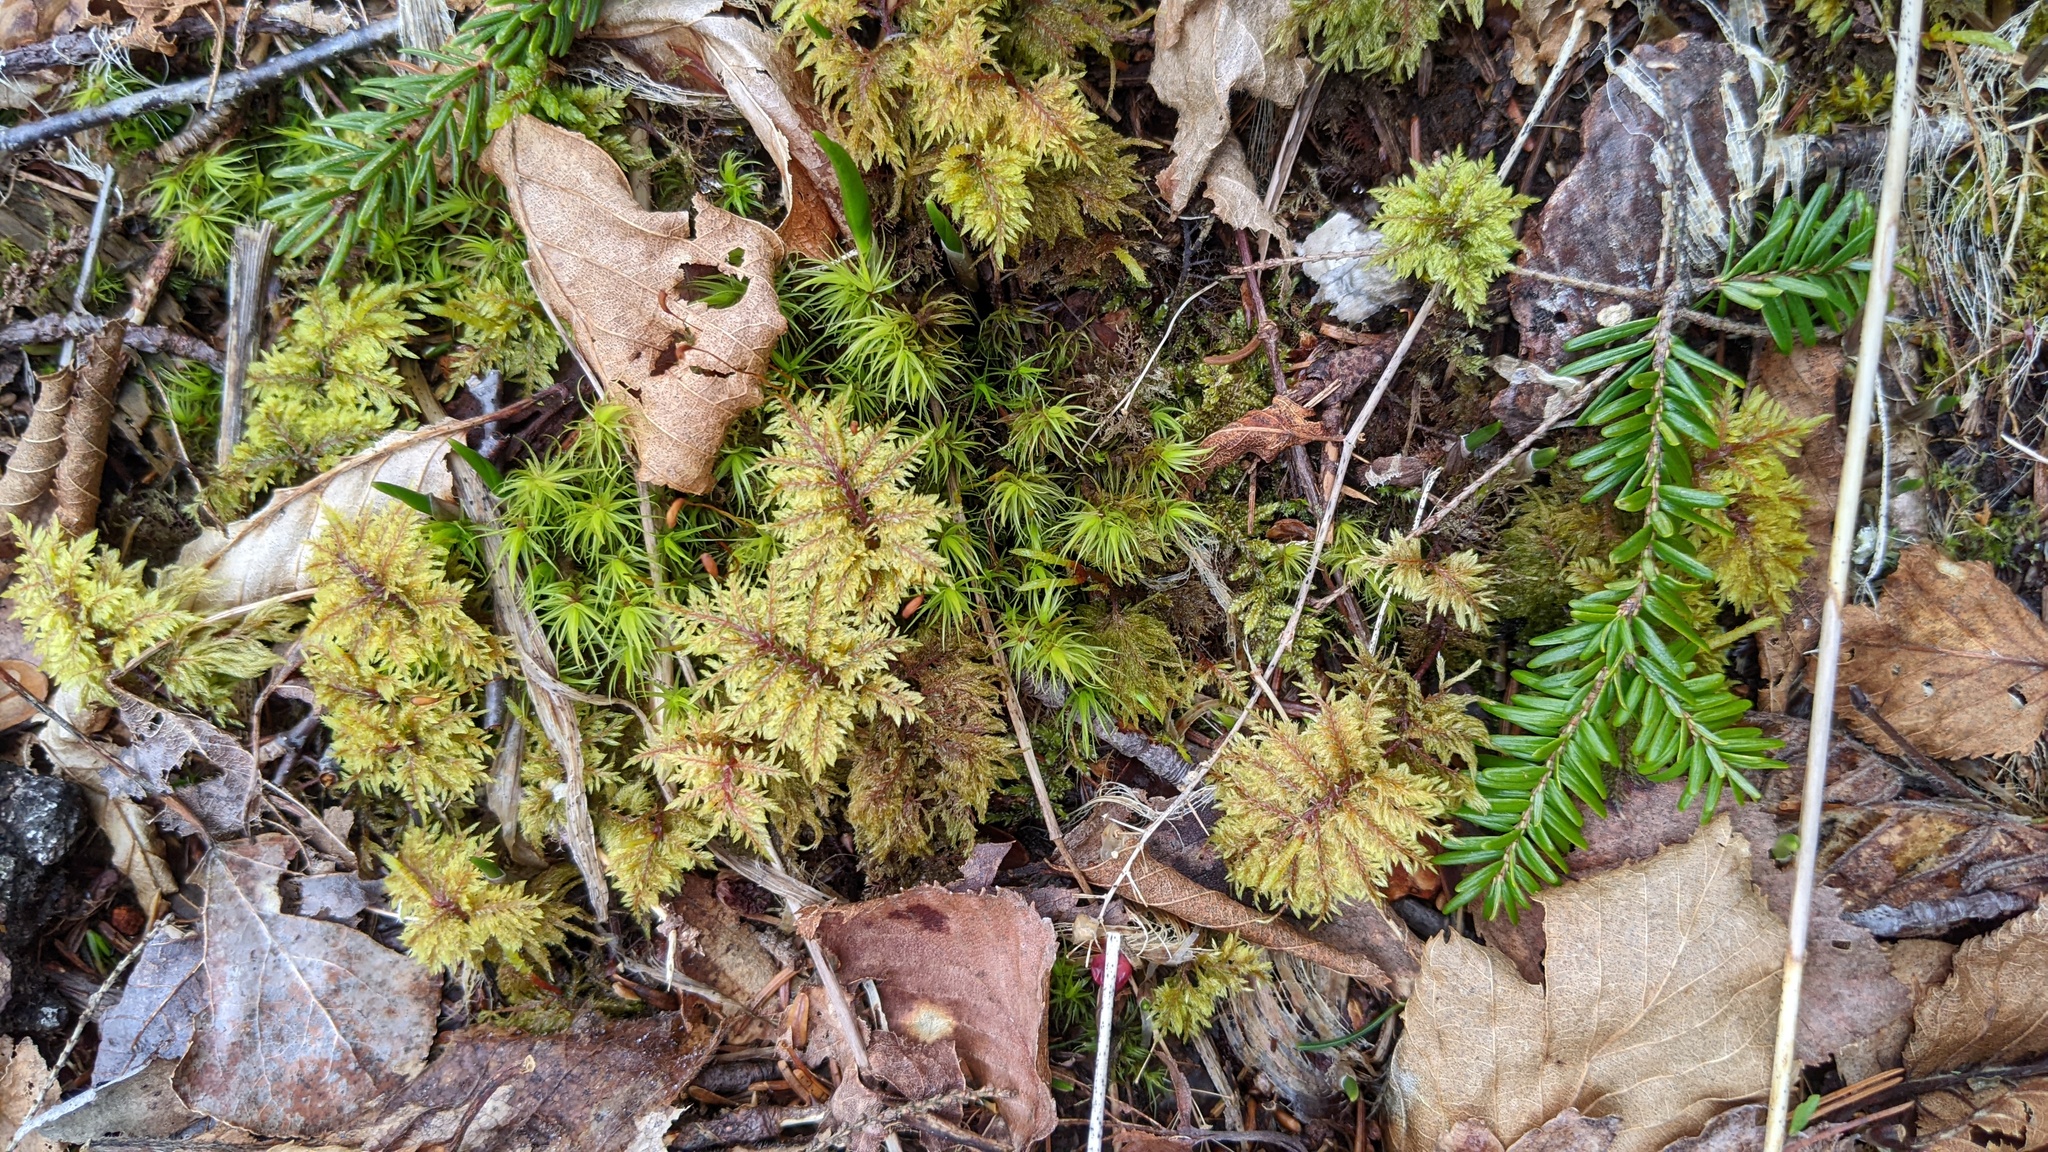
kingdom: Plantae
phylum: Bryophyta
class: Bryopsida
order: Hypnales
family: Hylocomiaceae
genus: Hylocomium
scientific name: Hylocomium splendens
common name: Stairstep moss
